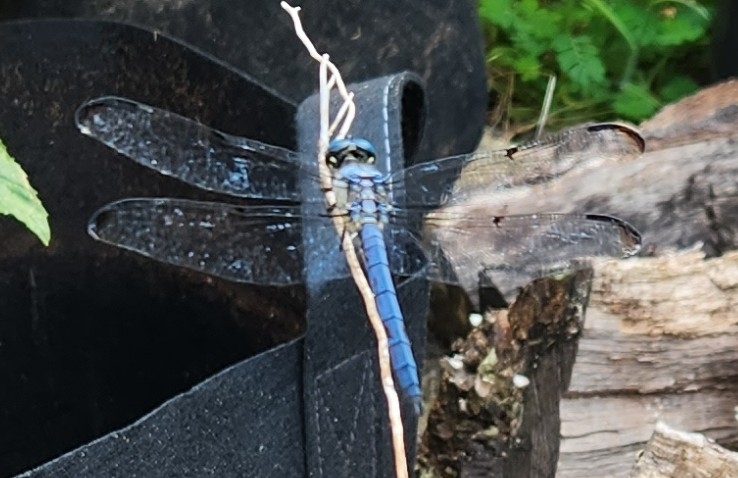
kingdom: Animalia
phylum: Arthropoda
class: Insecta
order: Odonata
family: Libellulidae
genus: Libellula
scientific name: Libellula vibrans
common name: Great blue skimmer
